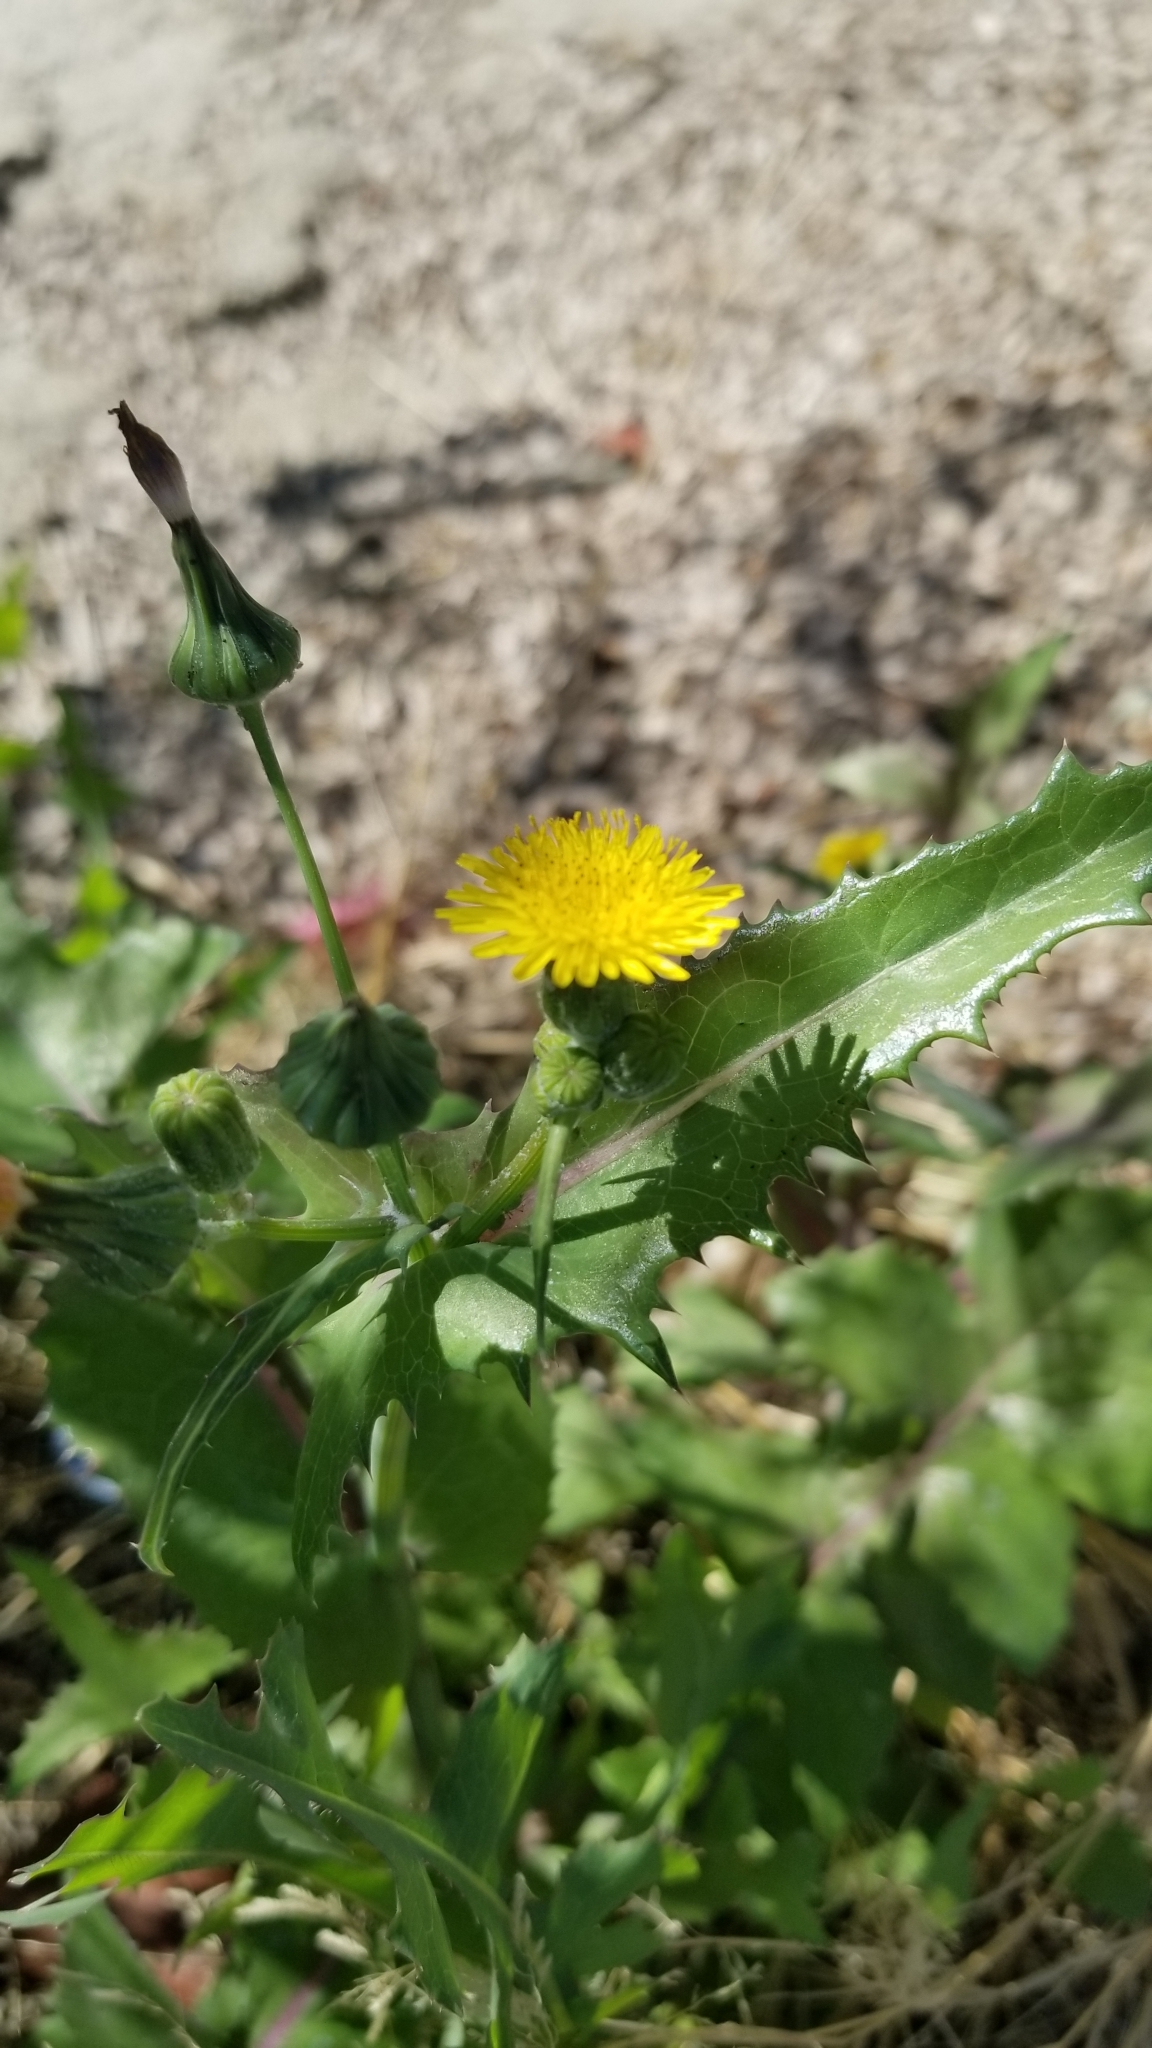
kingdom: Plantae
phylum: Tracheophyta
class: Magnoliopsida
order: Asterales
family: Asteraceae
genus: Sonchus
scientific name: Sonchus oleraceus
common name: Common sowthistle
